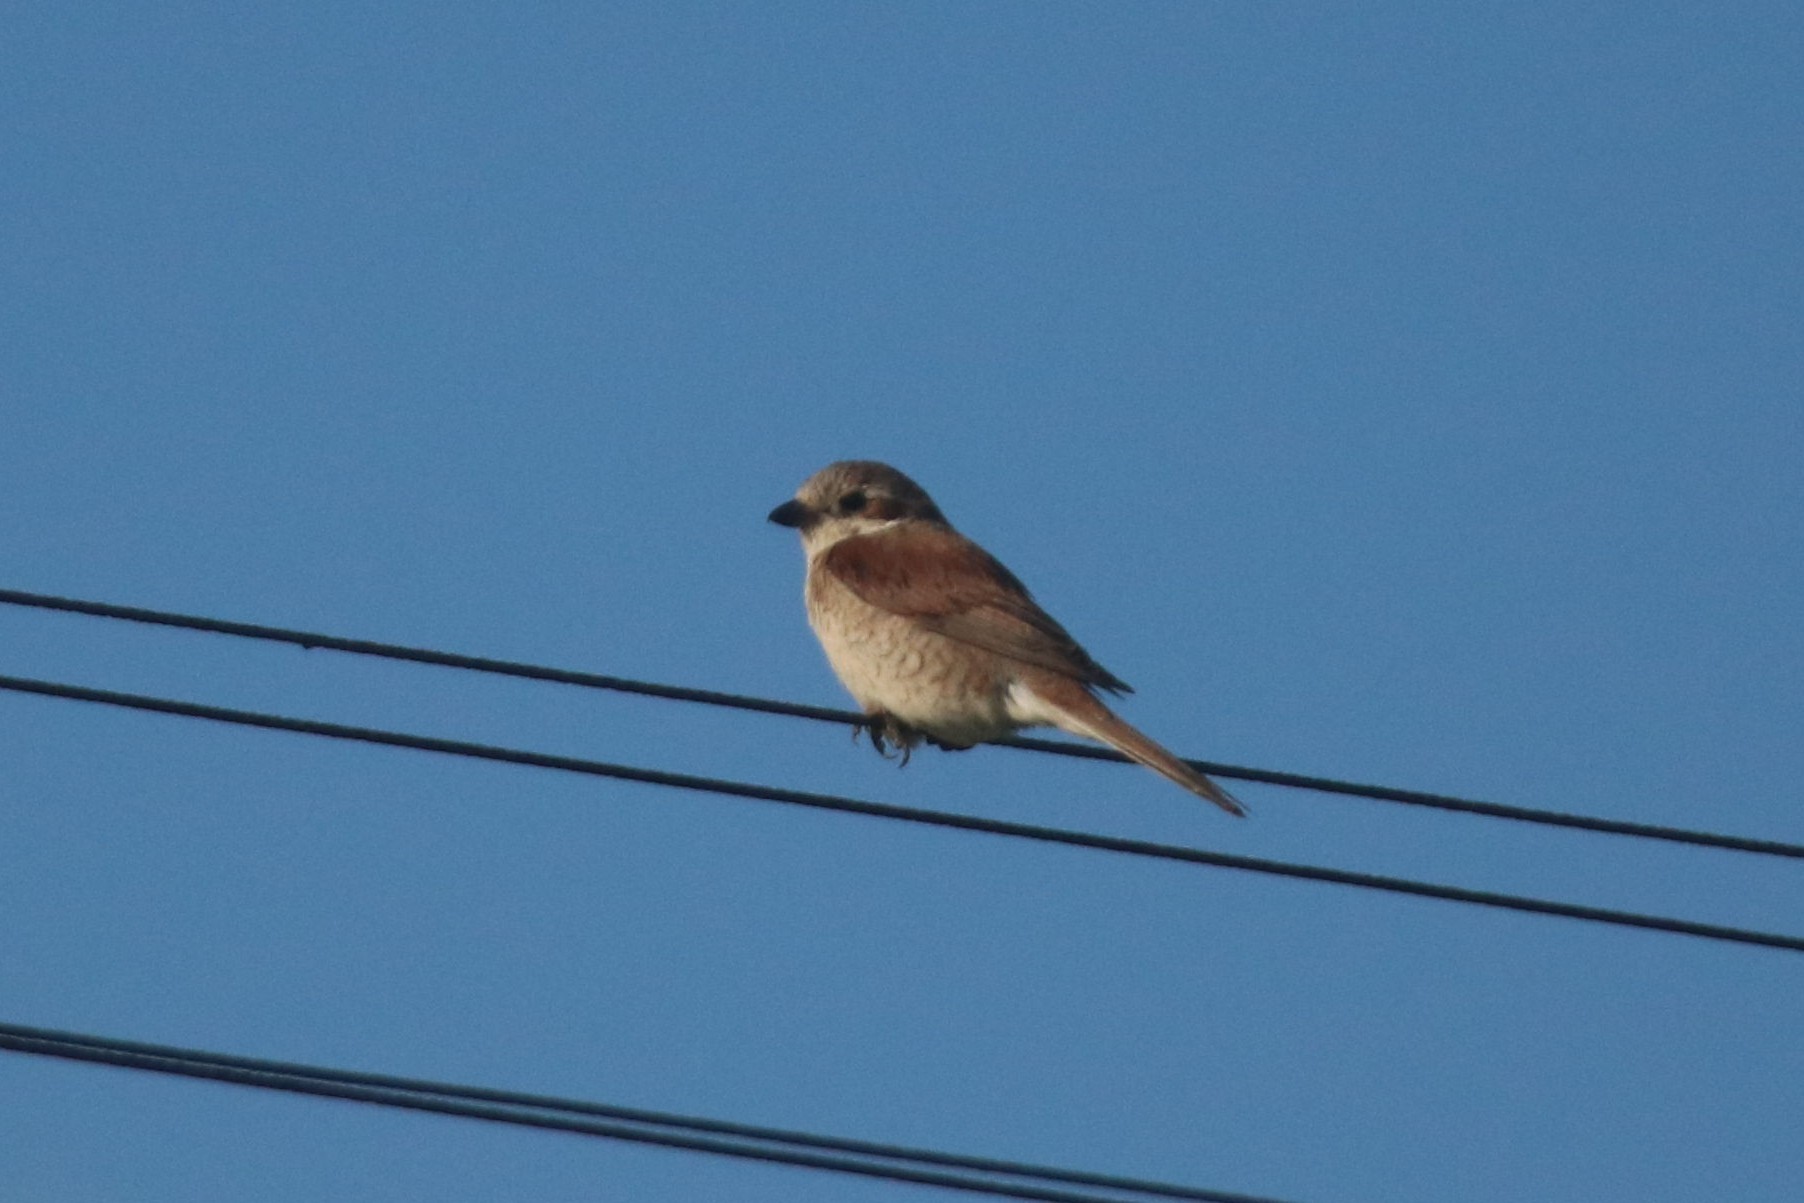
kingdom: Animalia
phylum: Chordata
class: Aves
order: Passeriformes
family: Laniidae
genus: Lanius
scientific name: Lanius collurio
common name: Red-backed shrike
